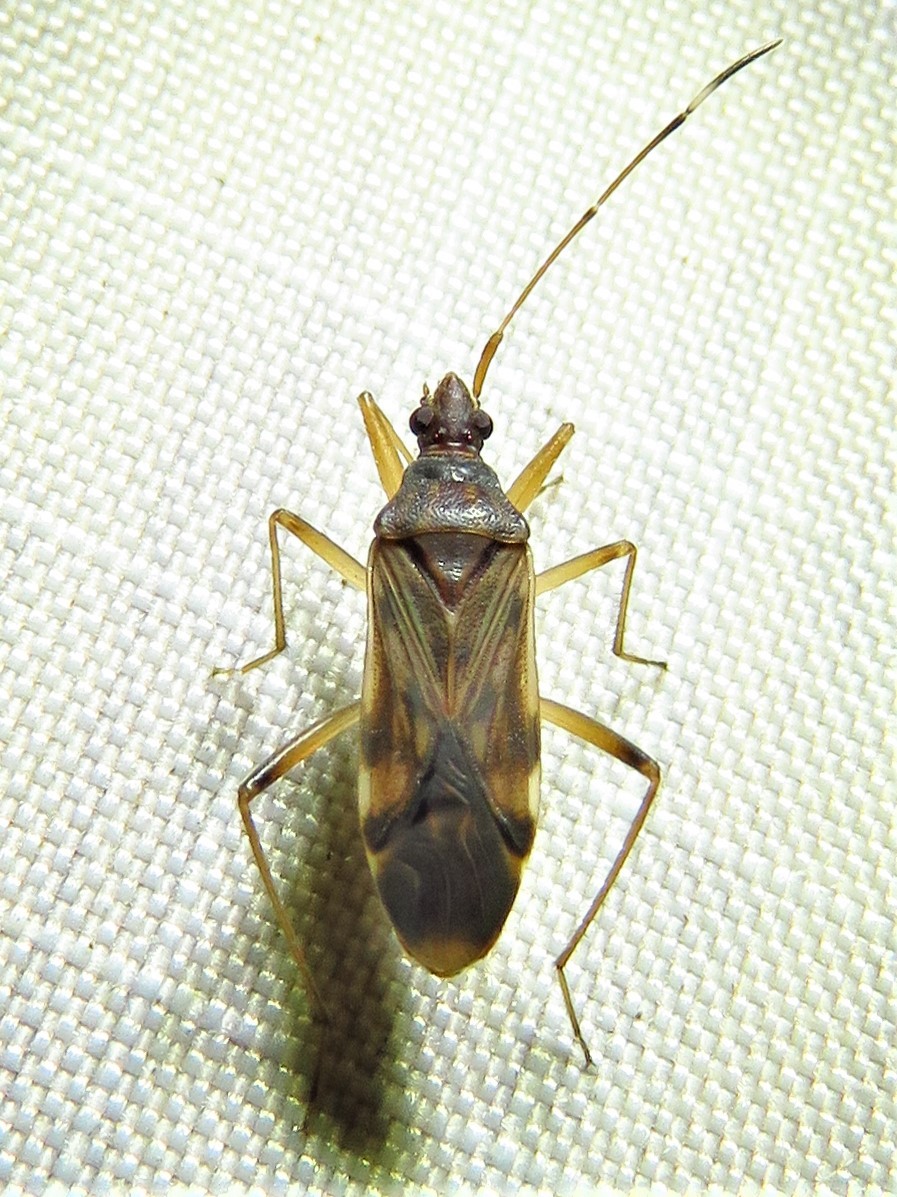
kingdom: Animalia
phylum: Arthropoda
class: Insecta
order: Hemiptera
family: Rhyparochromidae
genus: Ozophora
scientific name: Ozophora depicturata
